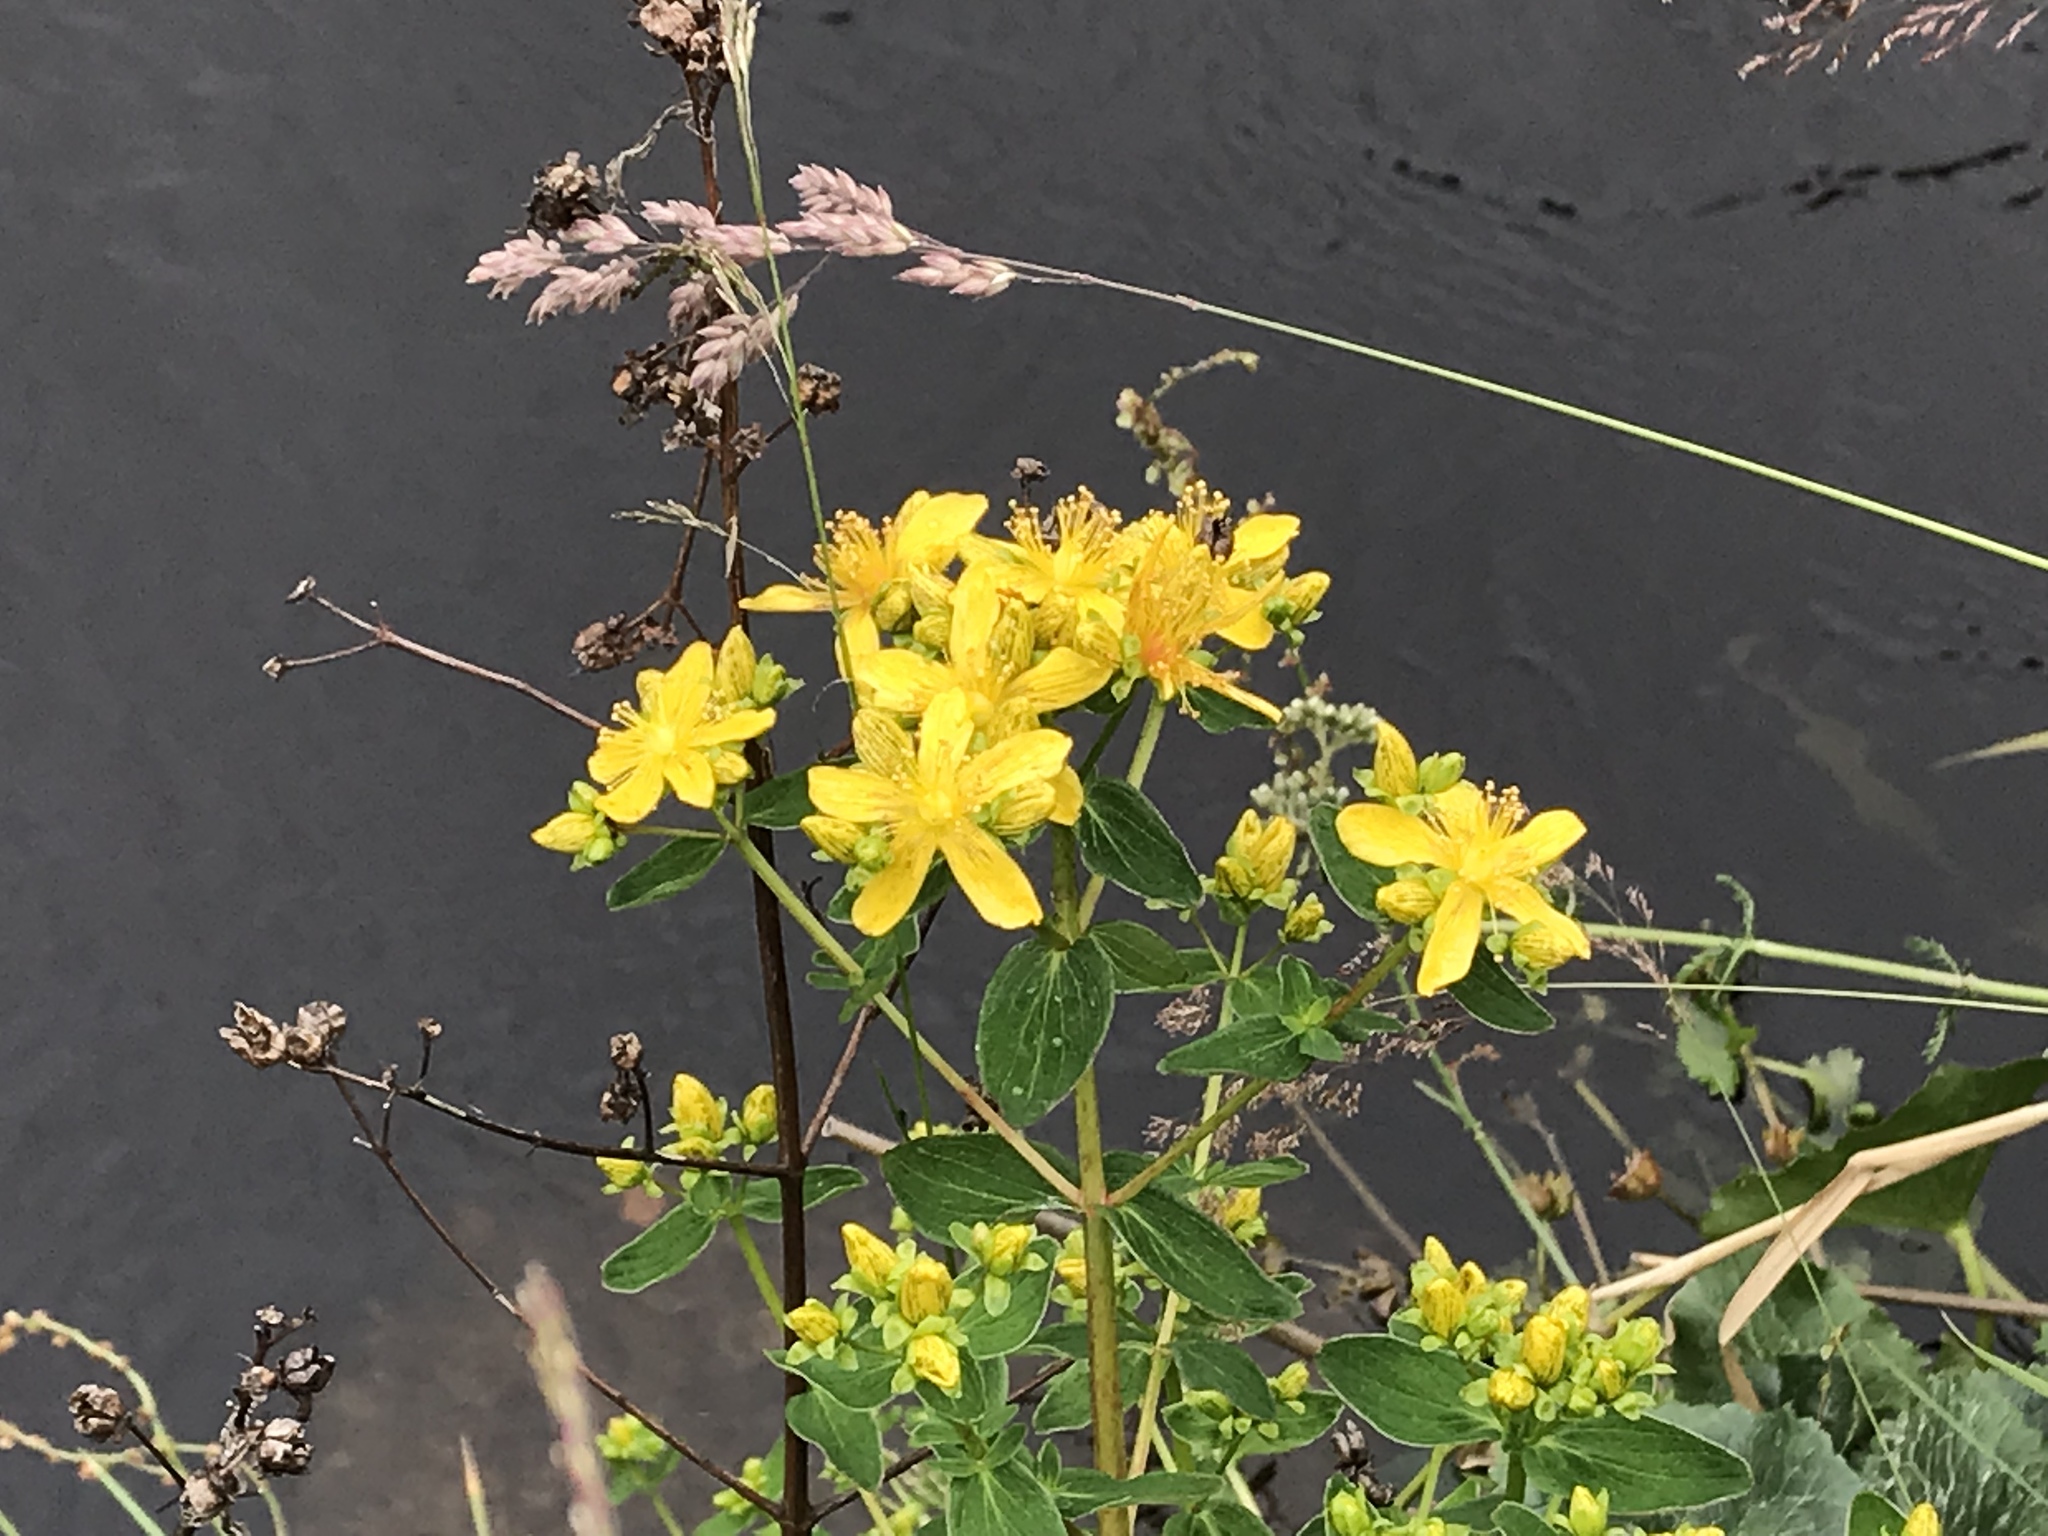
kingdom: Plantae
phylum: Tracheophyta
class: Magnoliopsida
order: Malpighiales
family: Hypericaceae
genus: Hypericum
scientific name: Hypericum maculatum
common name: Imperforate st. john's-wort
